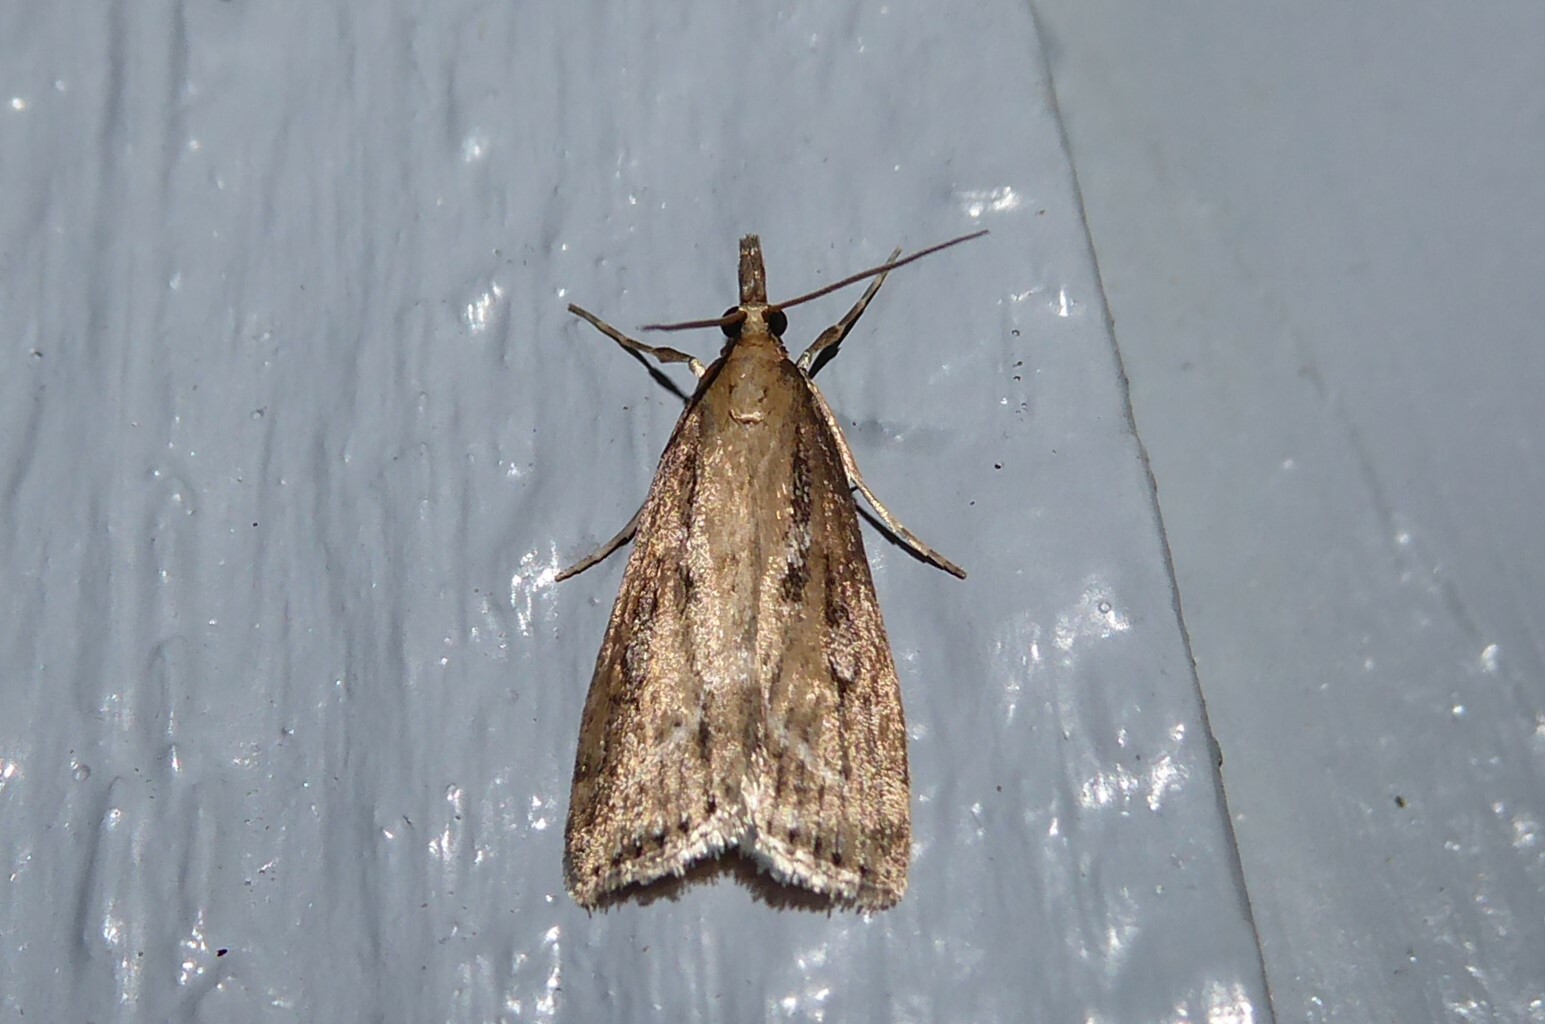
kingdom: Animalia
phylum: Arthropoda
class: Insecta
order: Lepidoptera
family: Crambidae
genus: Eudonia
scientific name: Eudonia octophora
